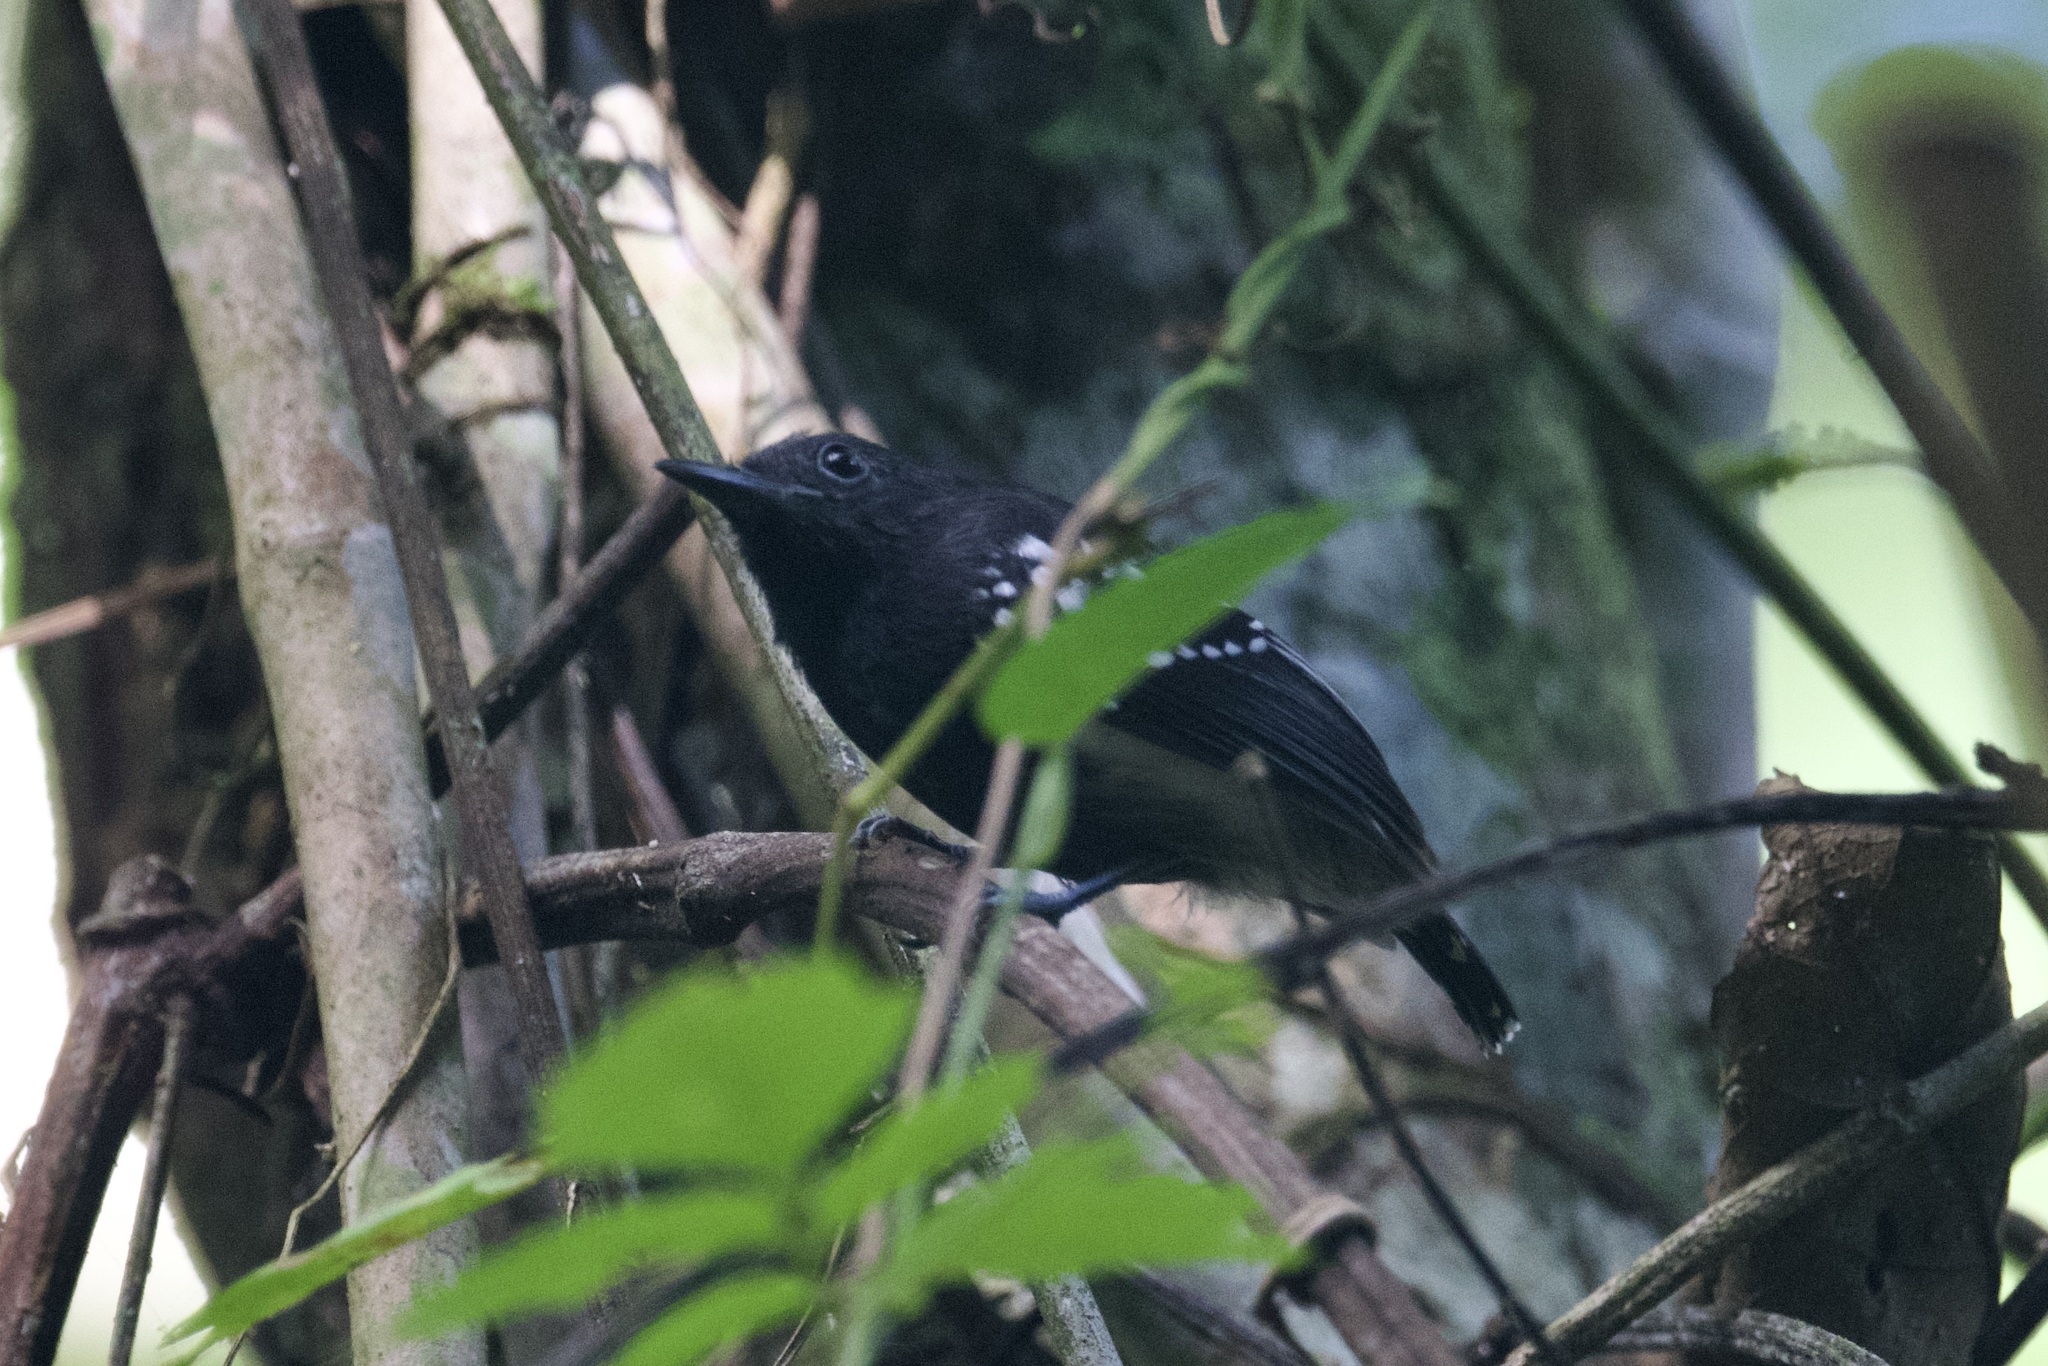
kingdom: Animalia
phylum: Chordata
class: Aves
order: Passeriformes
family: Thamnophilidae
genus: Myrmotherula
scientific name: Myrmotherula axillaris
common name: White-flanked antwren
